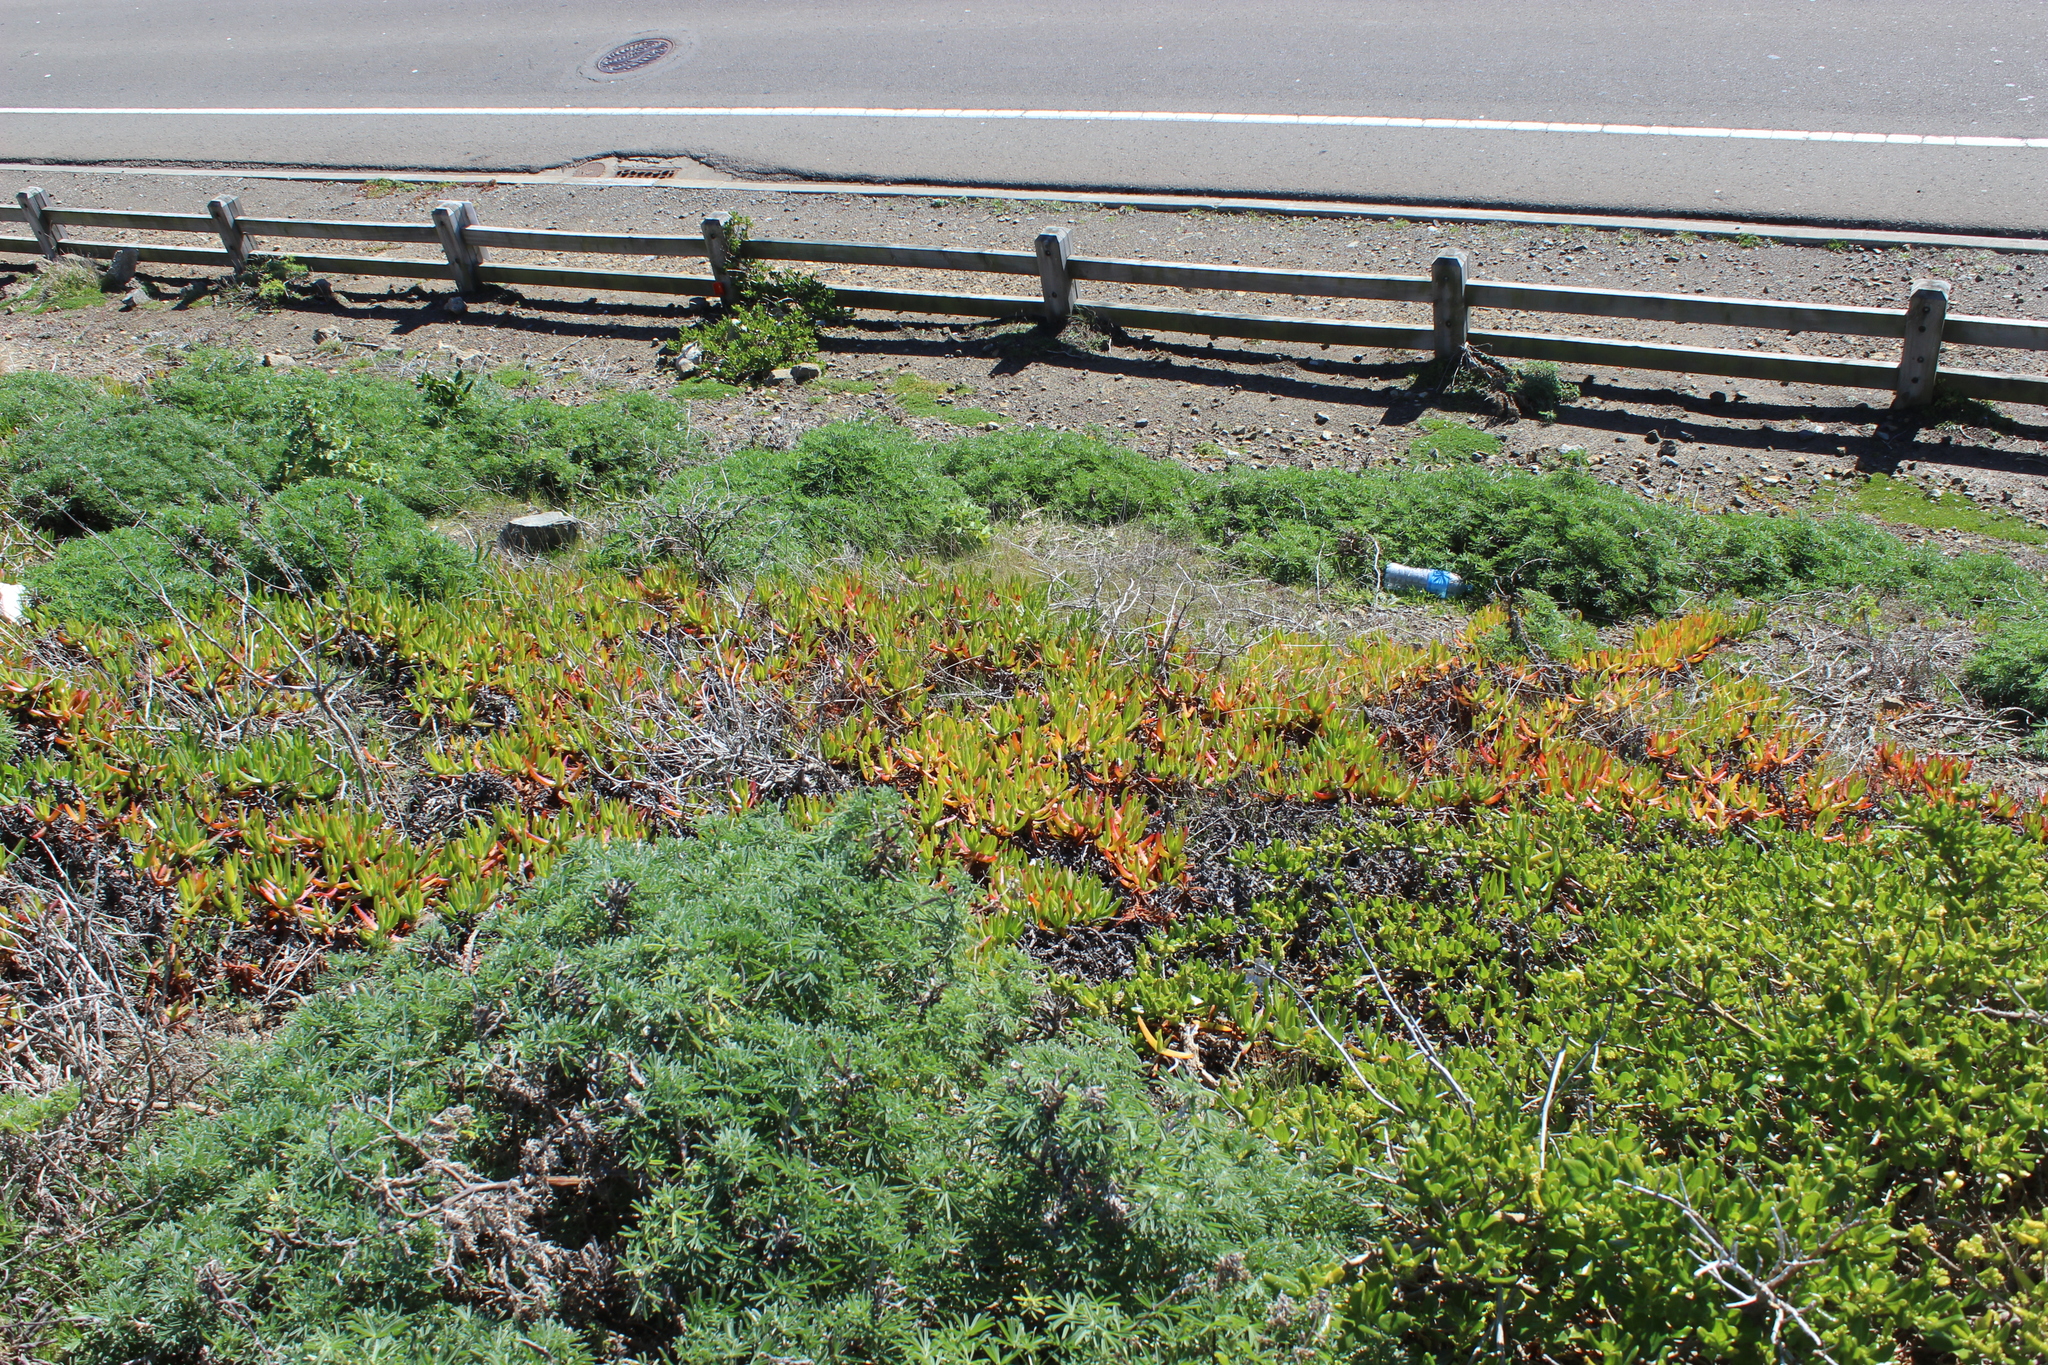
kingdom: Plantae
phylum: Tracheophyta
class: Magnoliopsida
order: Caryophyllales
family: Aizoaceae
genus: Carpobrotus
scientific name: Carpobrotus edulis
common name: Hottentot-fig
